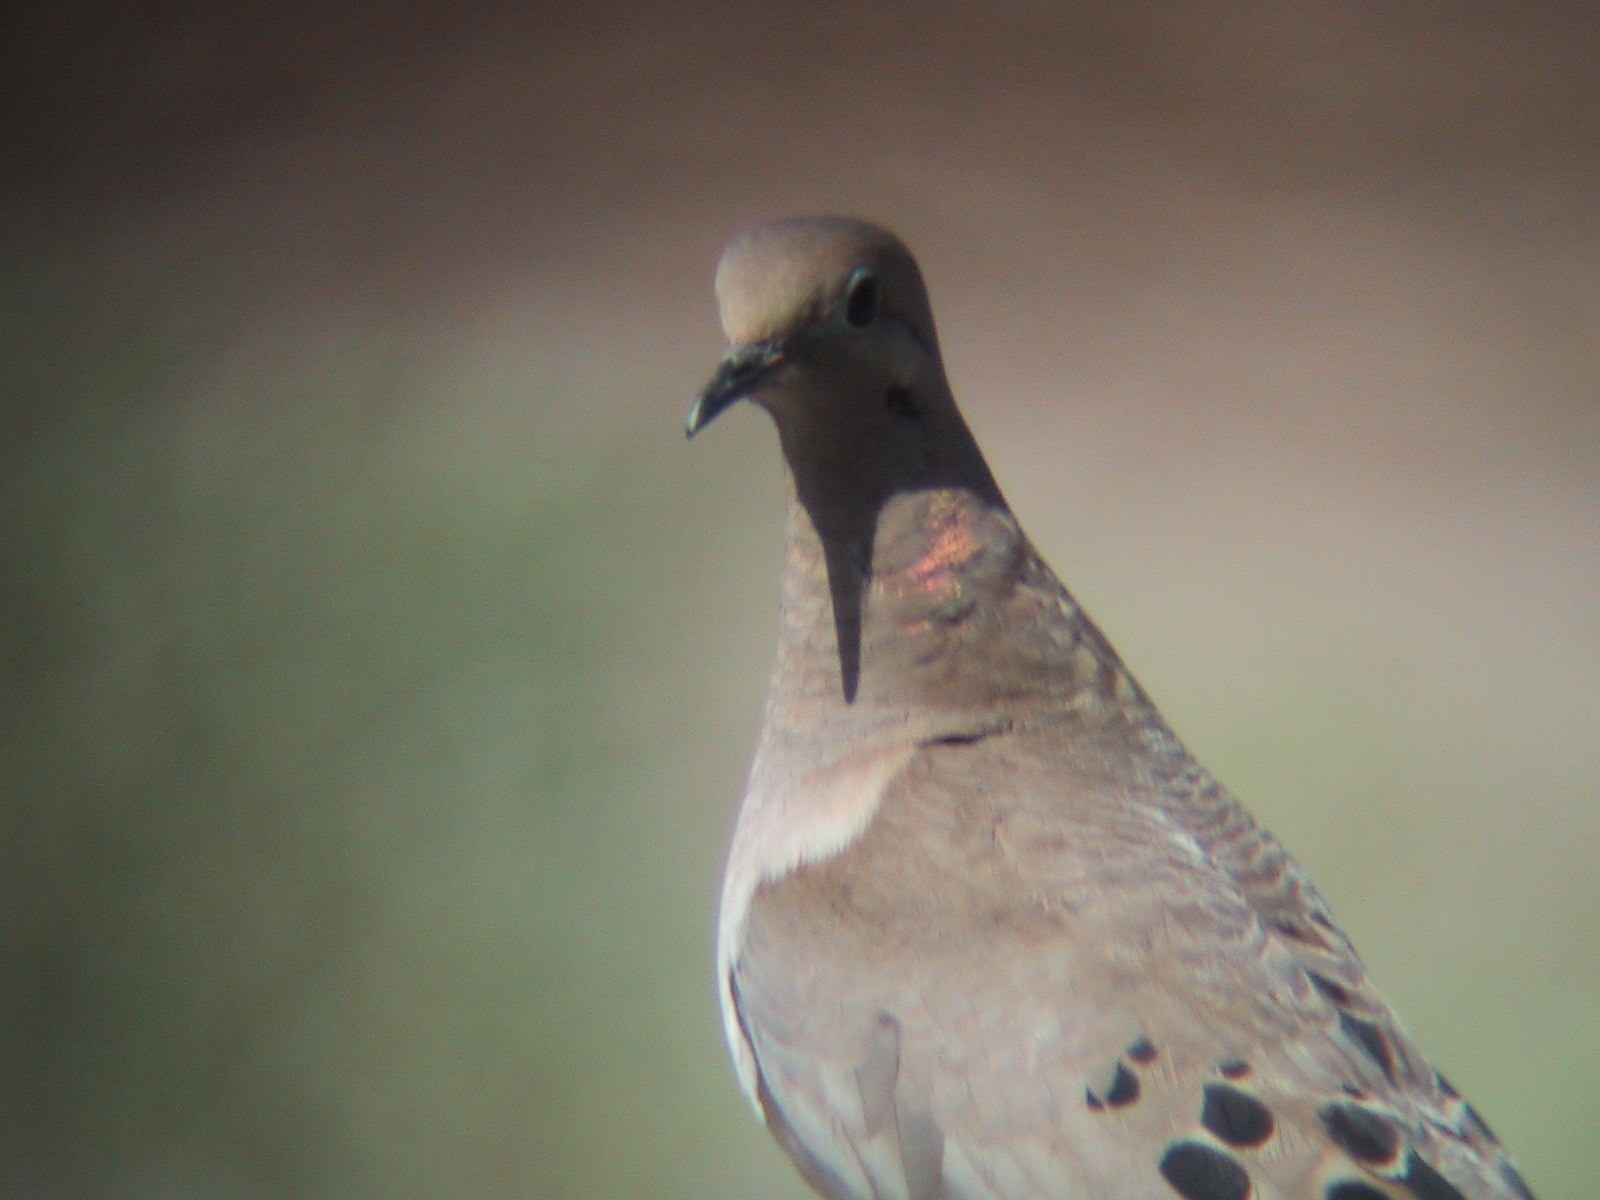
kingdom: Animalia
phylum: Chordata
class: Aves
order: Columbiformes
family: Columbidae
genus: Zenaida
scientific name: Zenaida macroura
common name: Mourning dove
